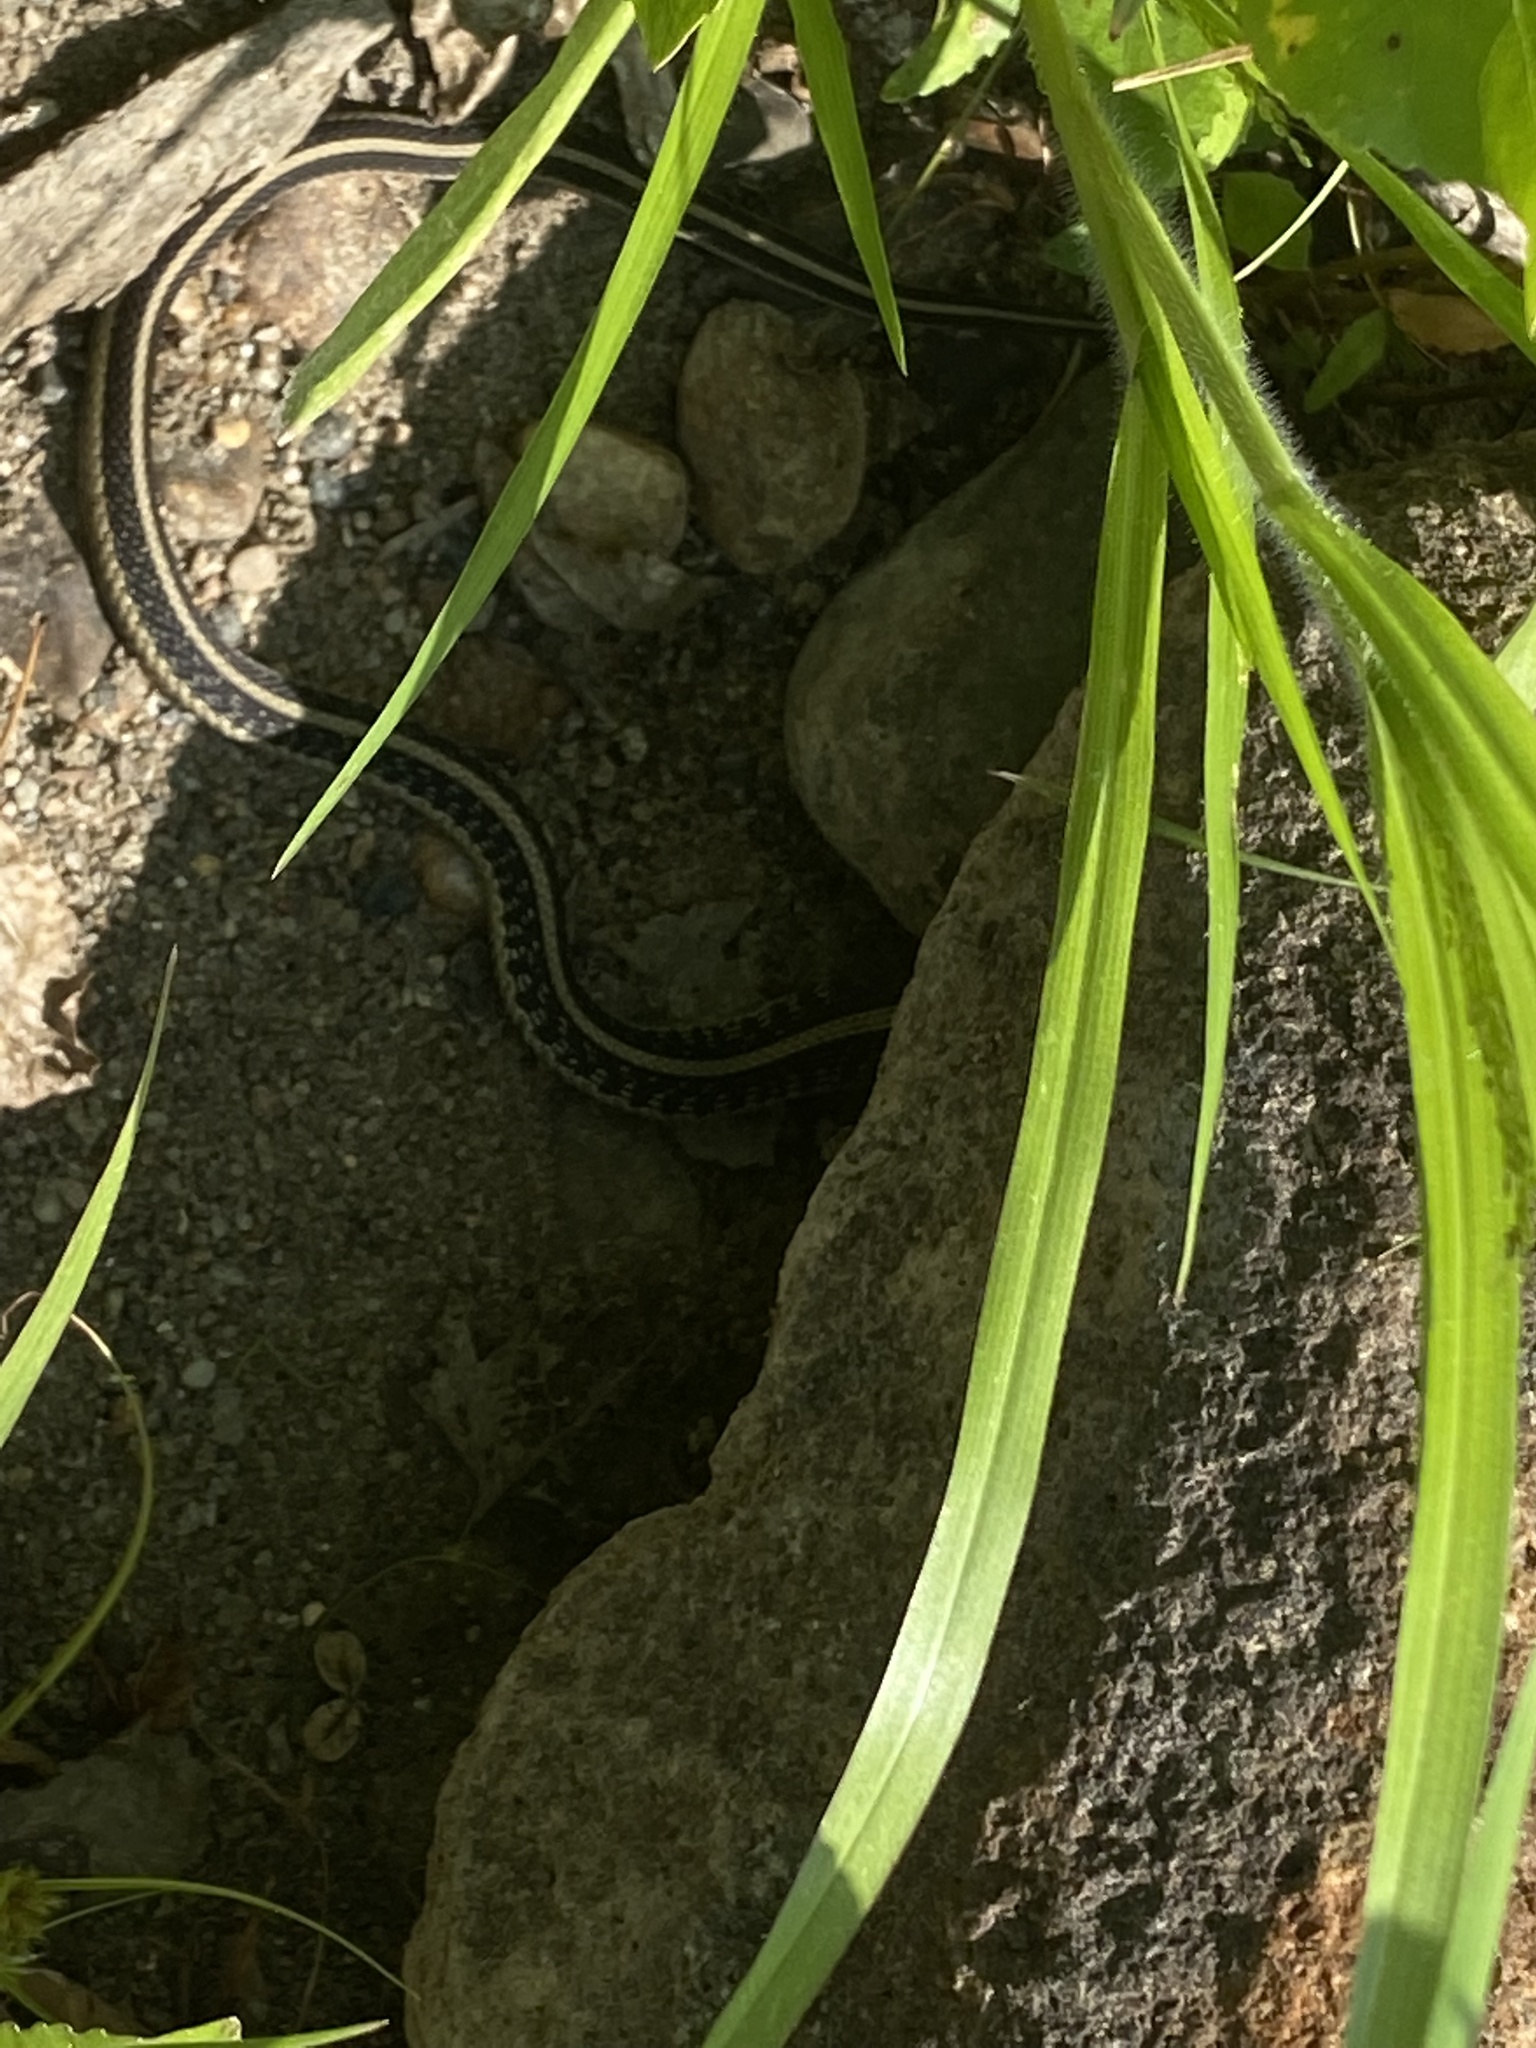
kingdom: Animalia
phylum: Chordata
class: Squamata
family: Colubridae
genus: Thamnophis
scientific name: Thamnophis sirtalis
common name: Common garter snake
